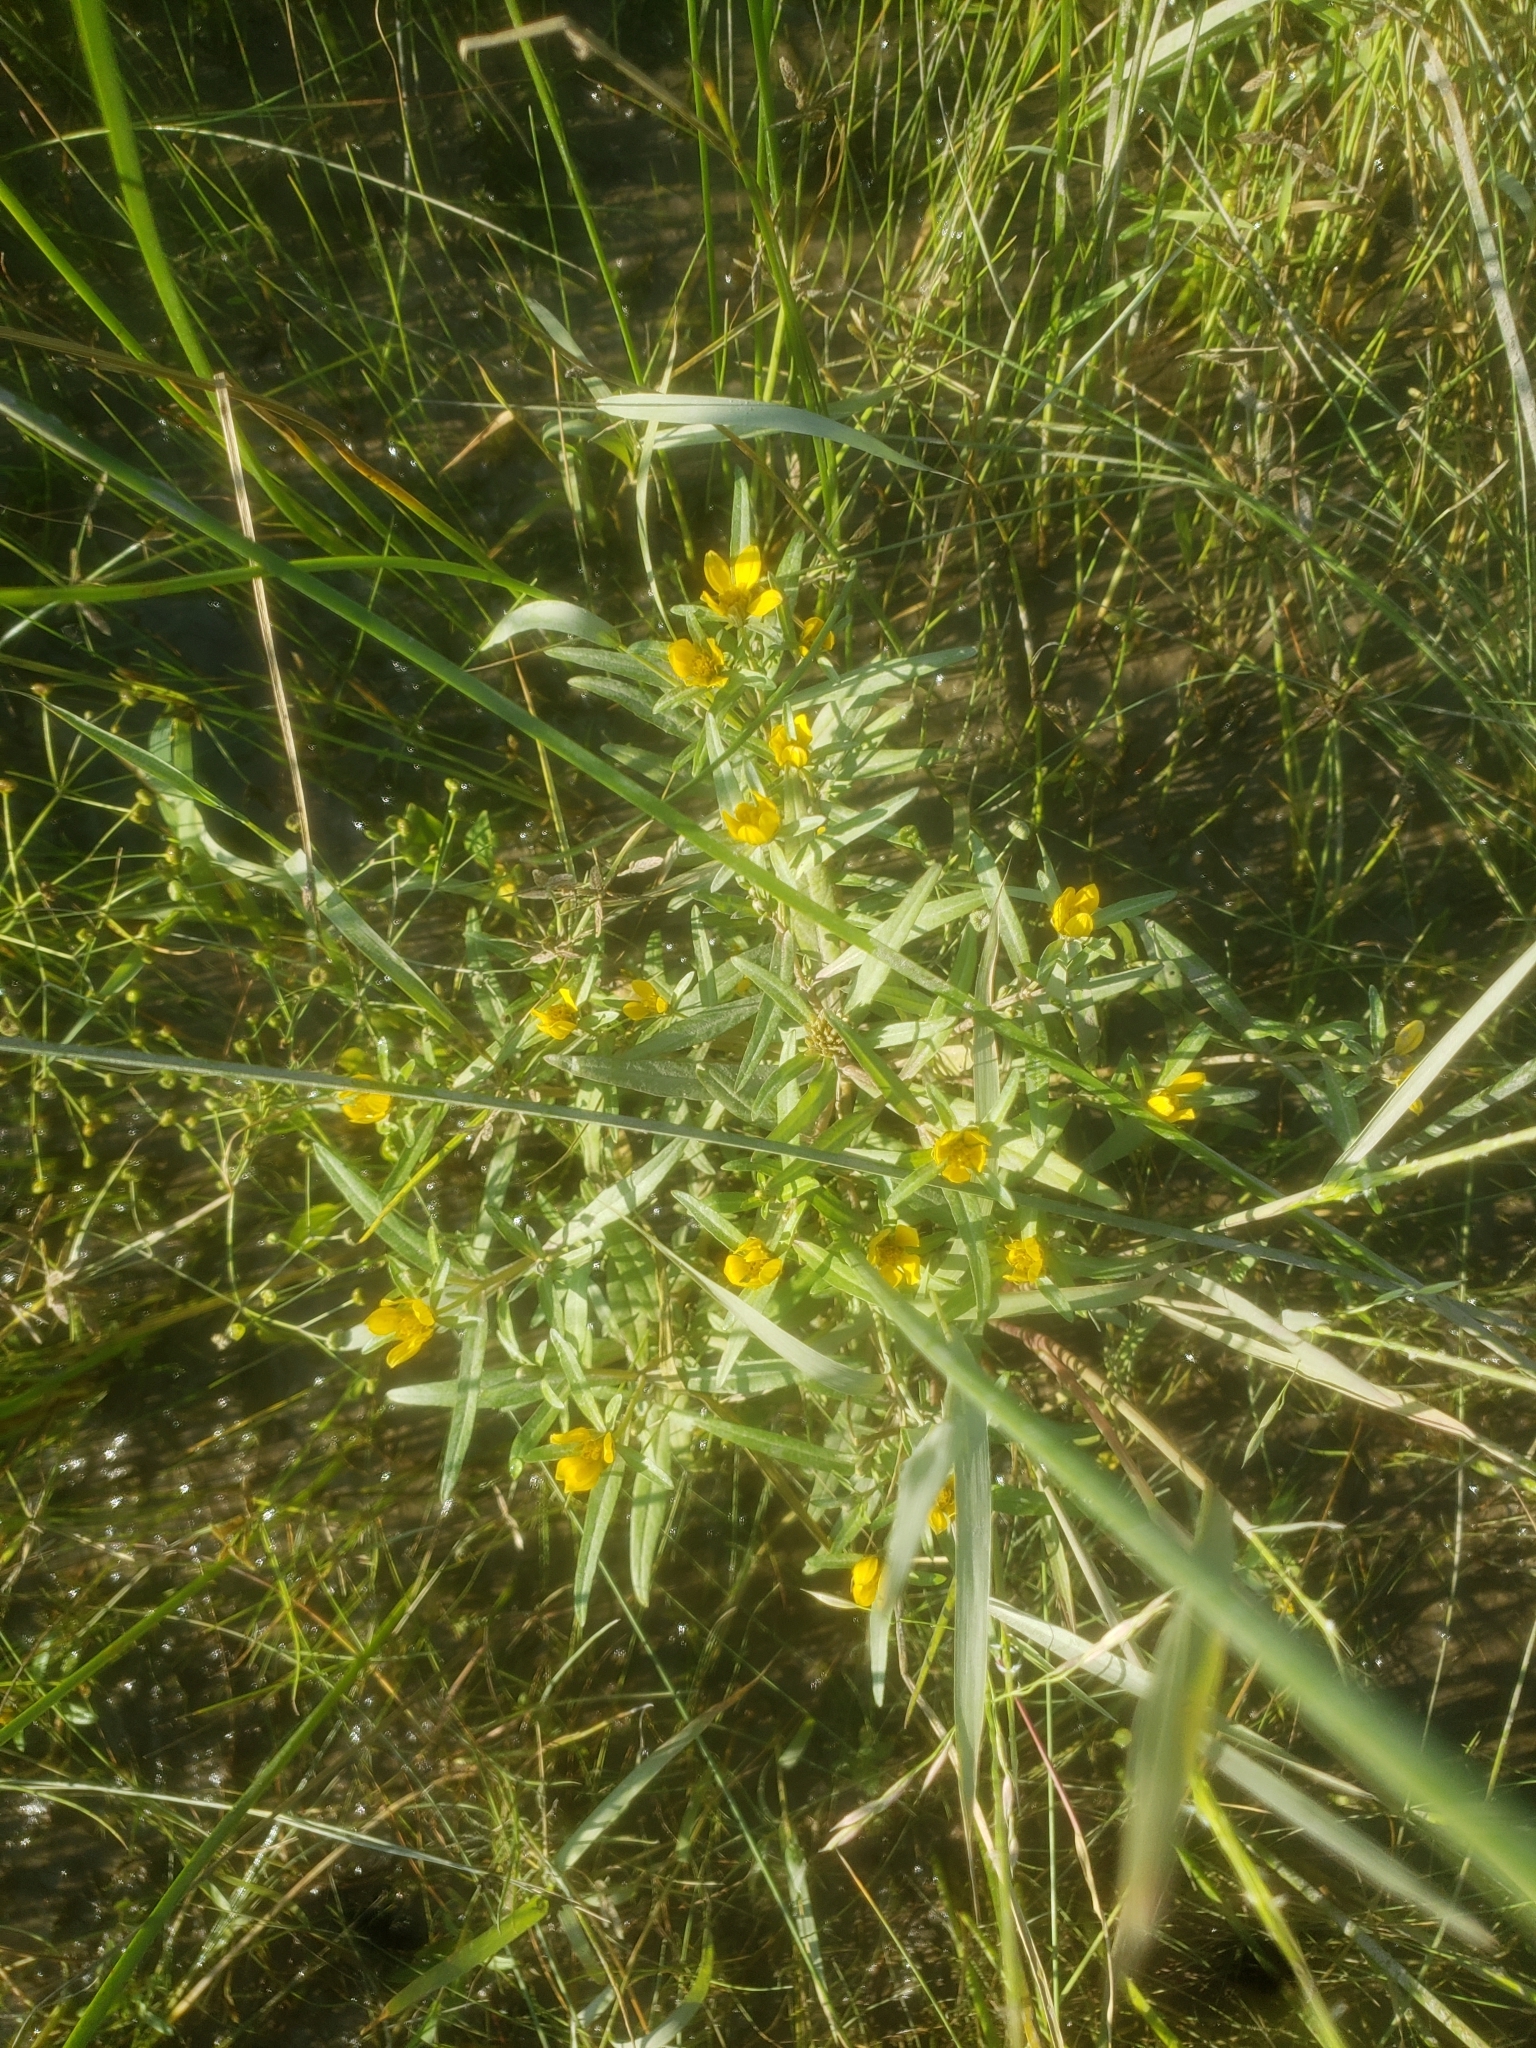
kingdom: Plantae
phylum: Tracheophyta
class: Magnoliopsida
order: Asterales
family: Asteraceae
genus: Bidens
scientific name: Bidens hyperborea
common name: Coastal beggarticks
